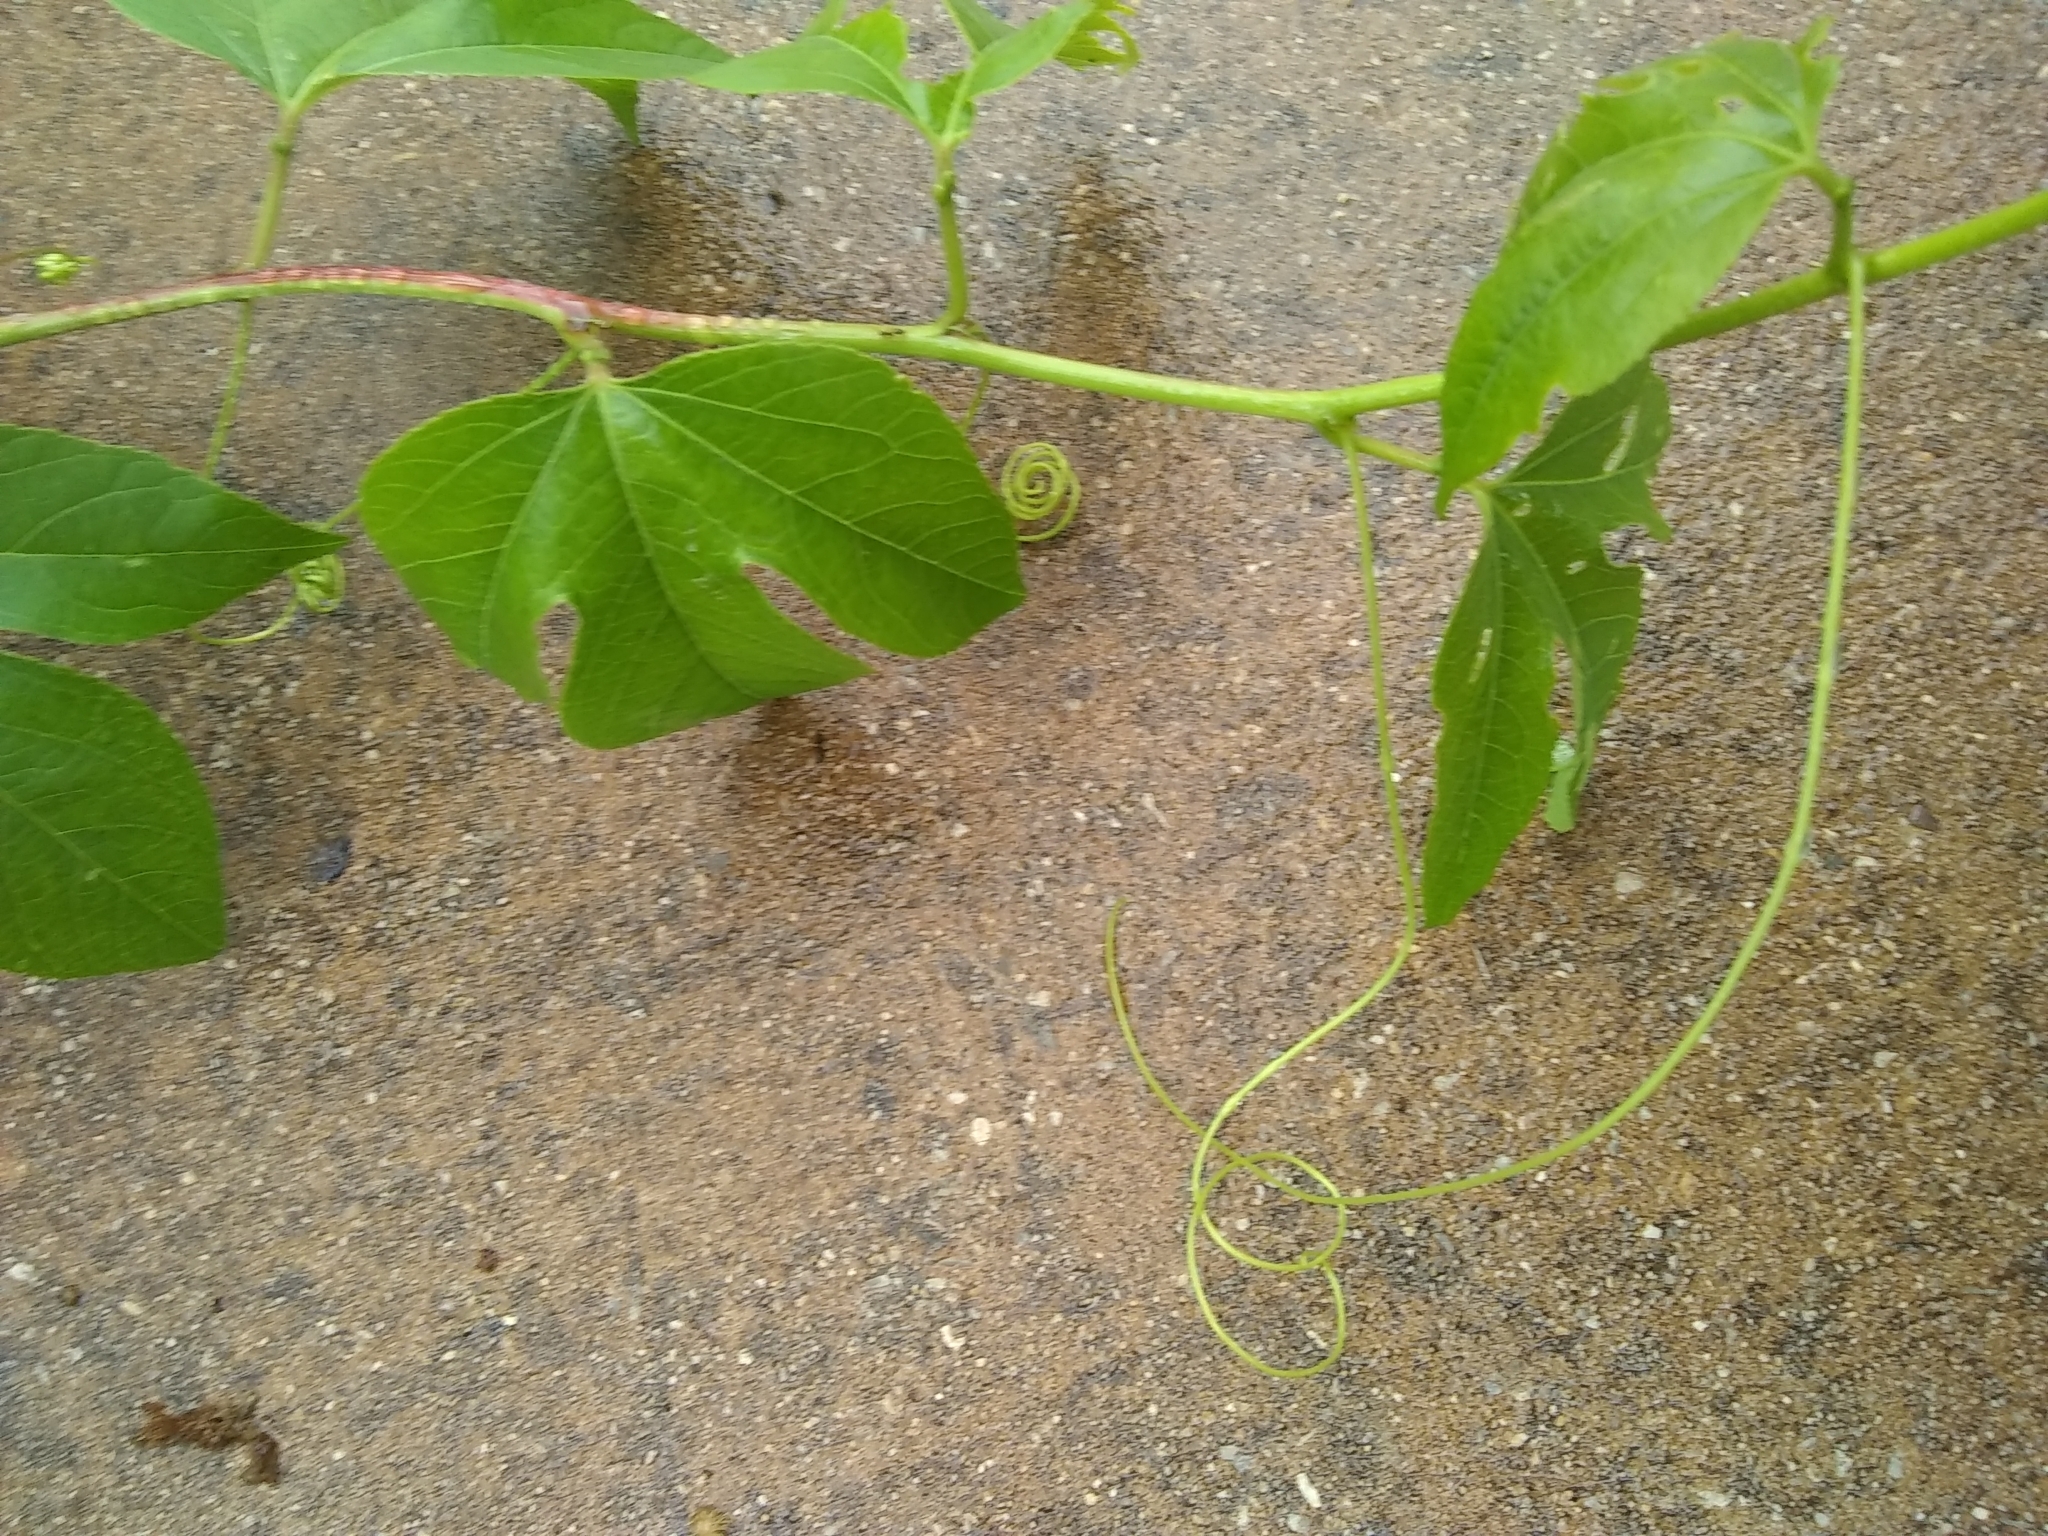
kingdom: Plantae
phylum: Tracheophyta
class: Magnoliopsida
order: Malpighiales
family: Passifloraceae
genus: Passiflora
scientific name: Passiflora incarnata
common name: Apricot-vine
